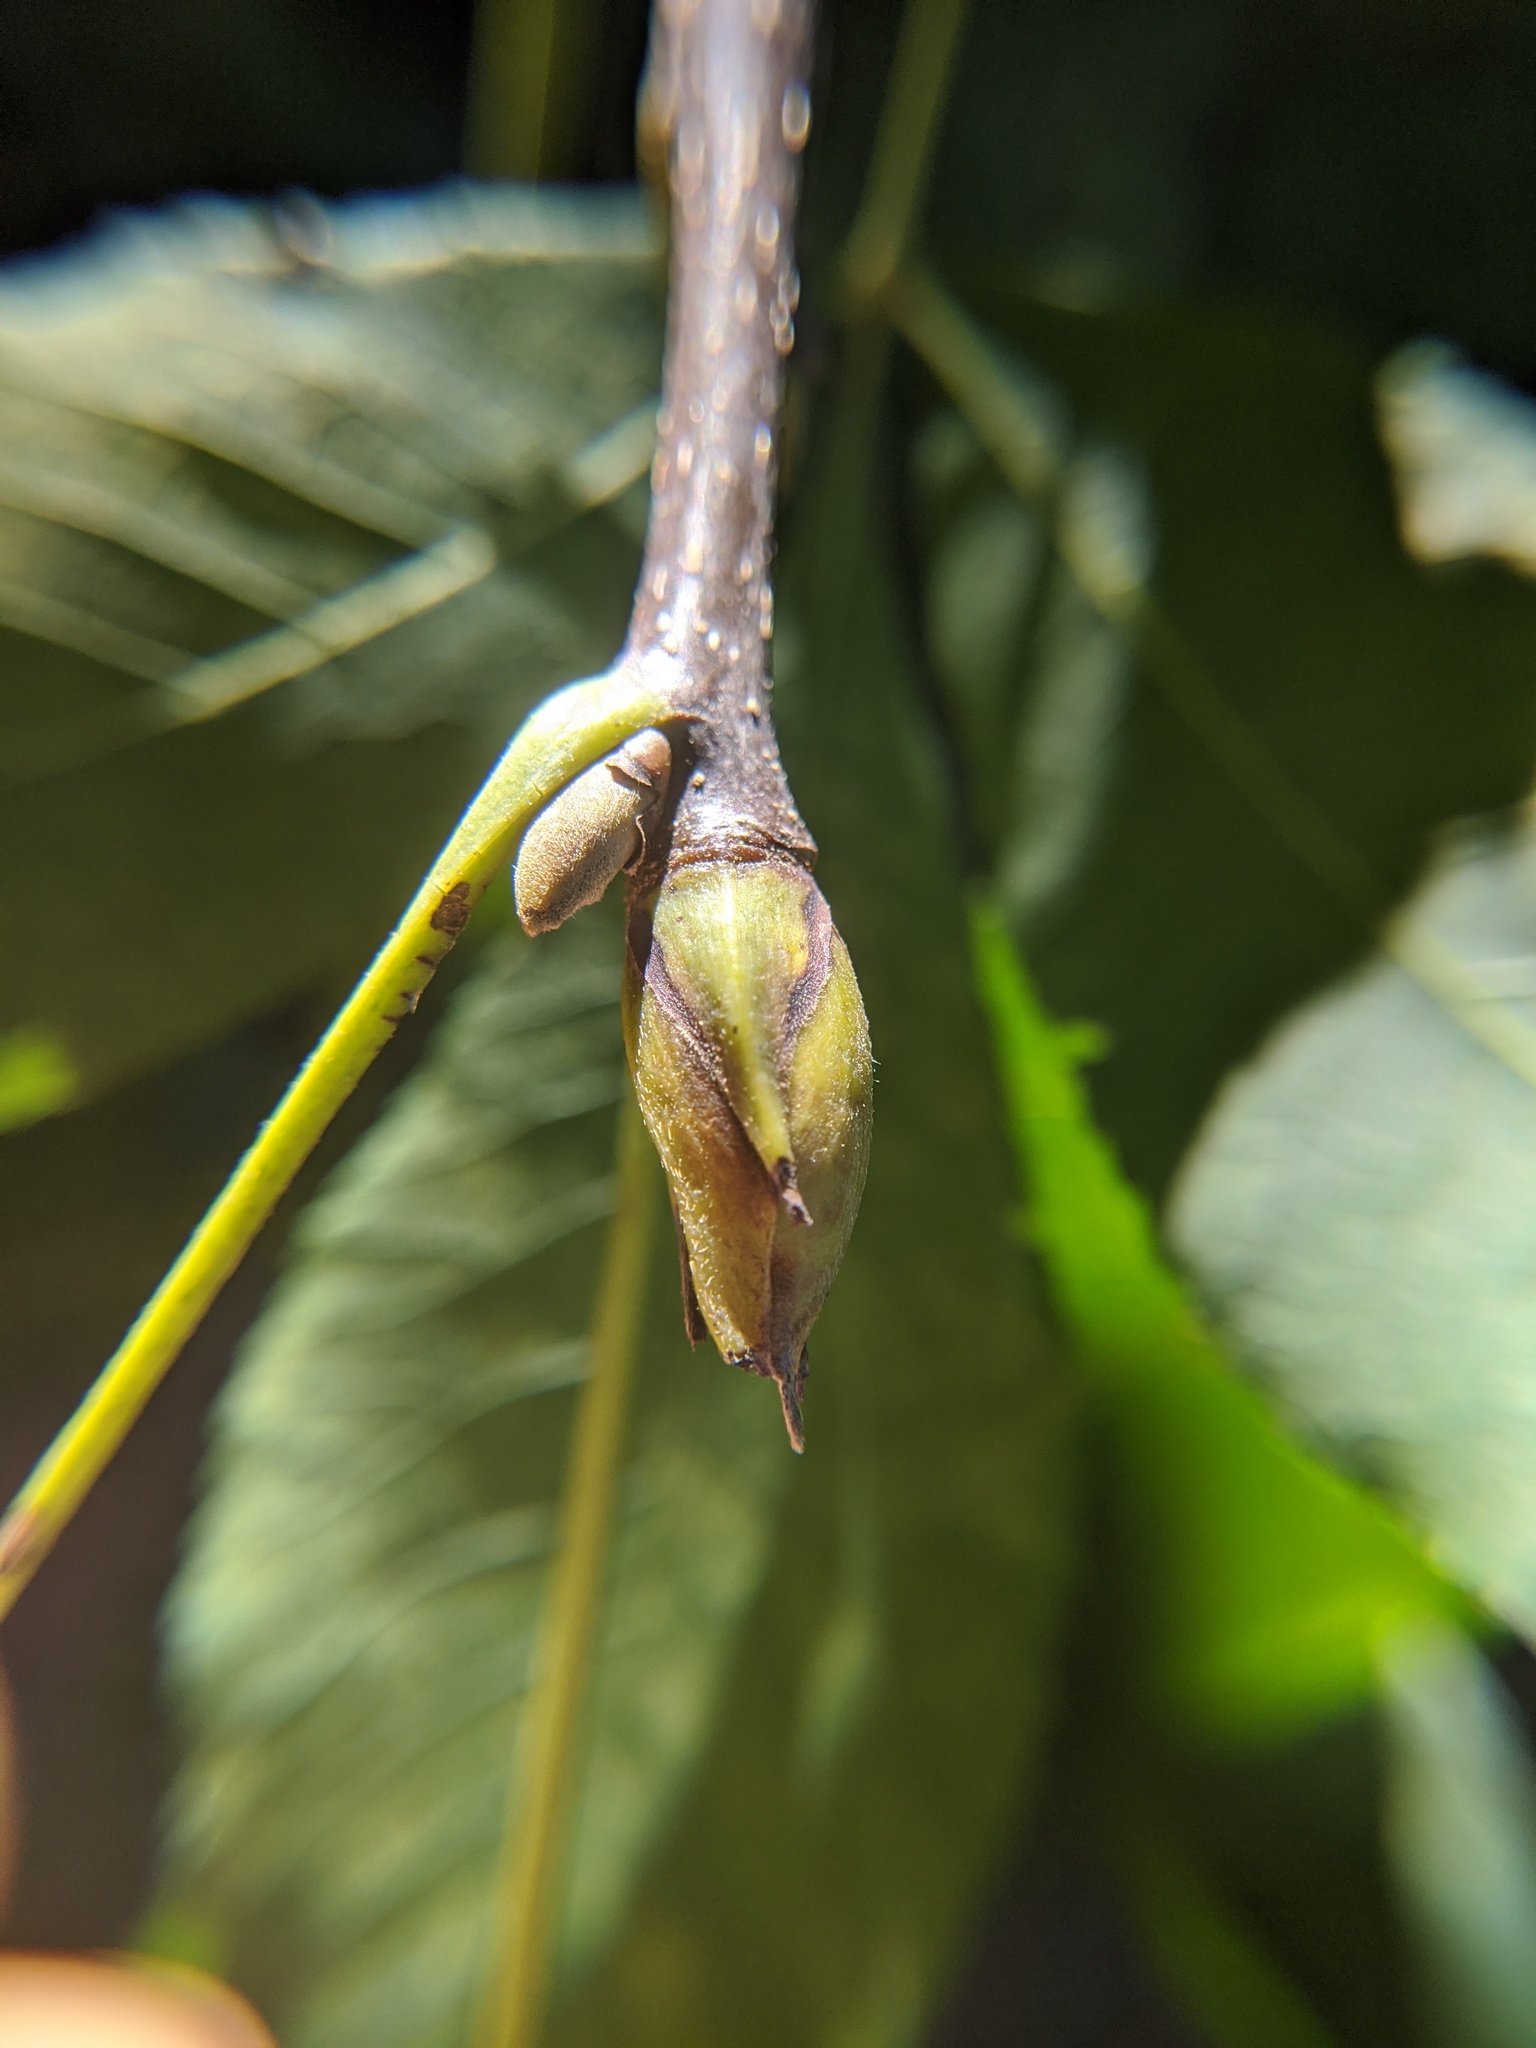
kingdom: Plantae
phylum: Tracheophyta
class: Magnoliopsida
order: Fagales
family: Juglandaceae
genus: Carya
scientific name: Carya ovata
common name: Shagbark hickory
